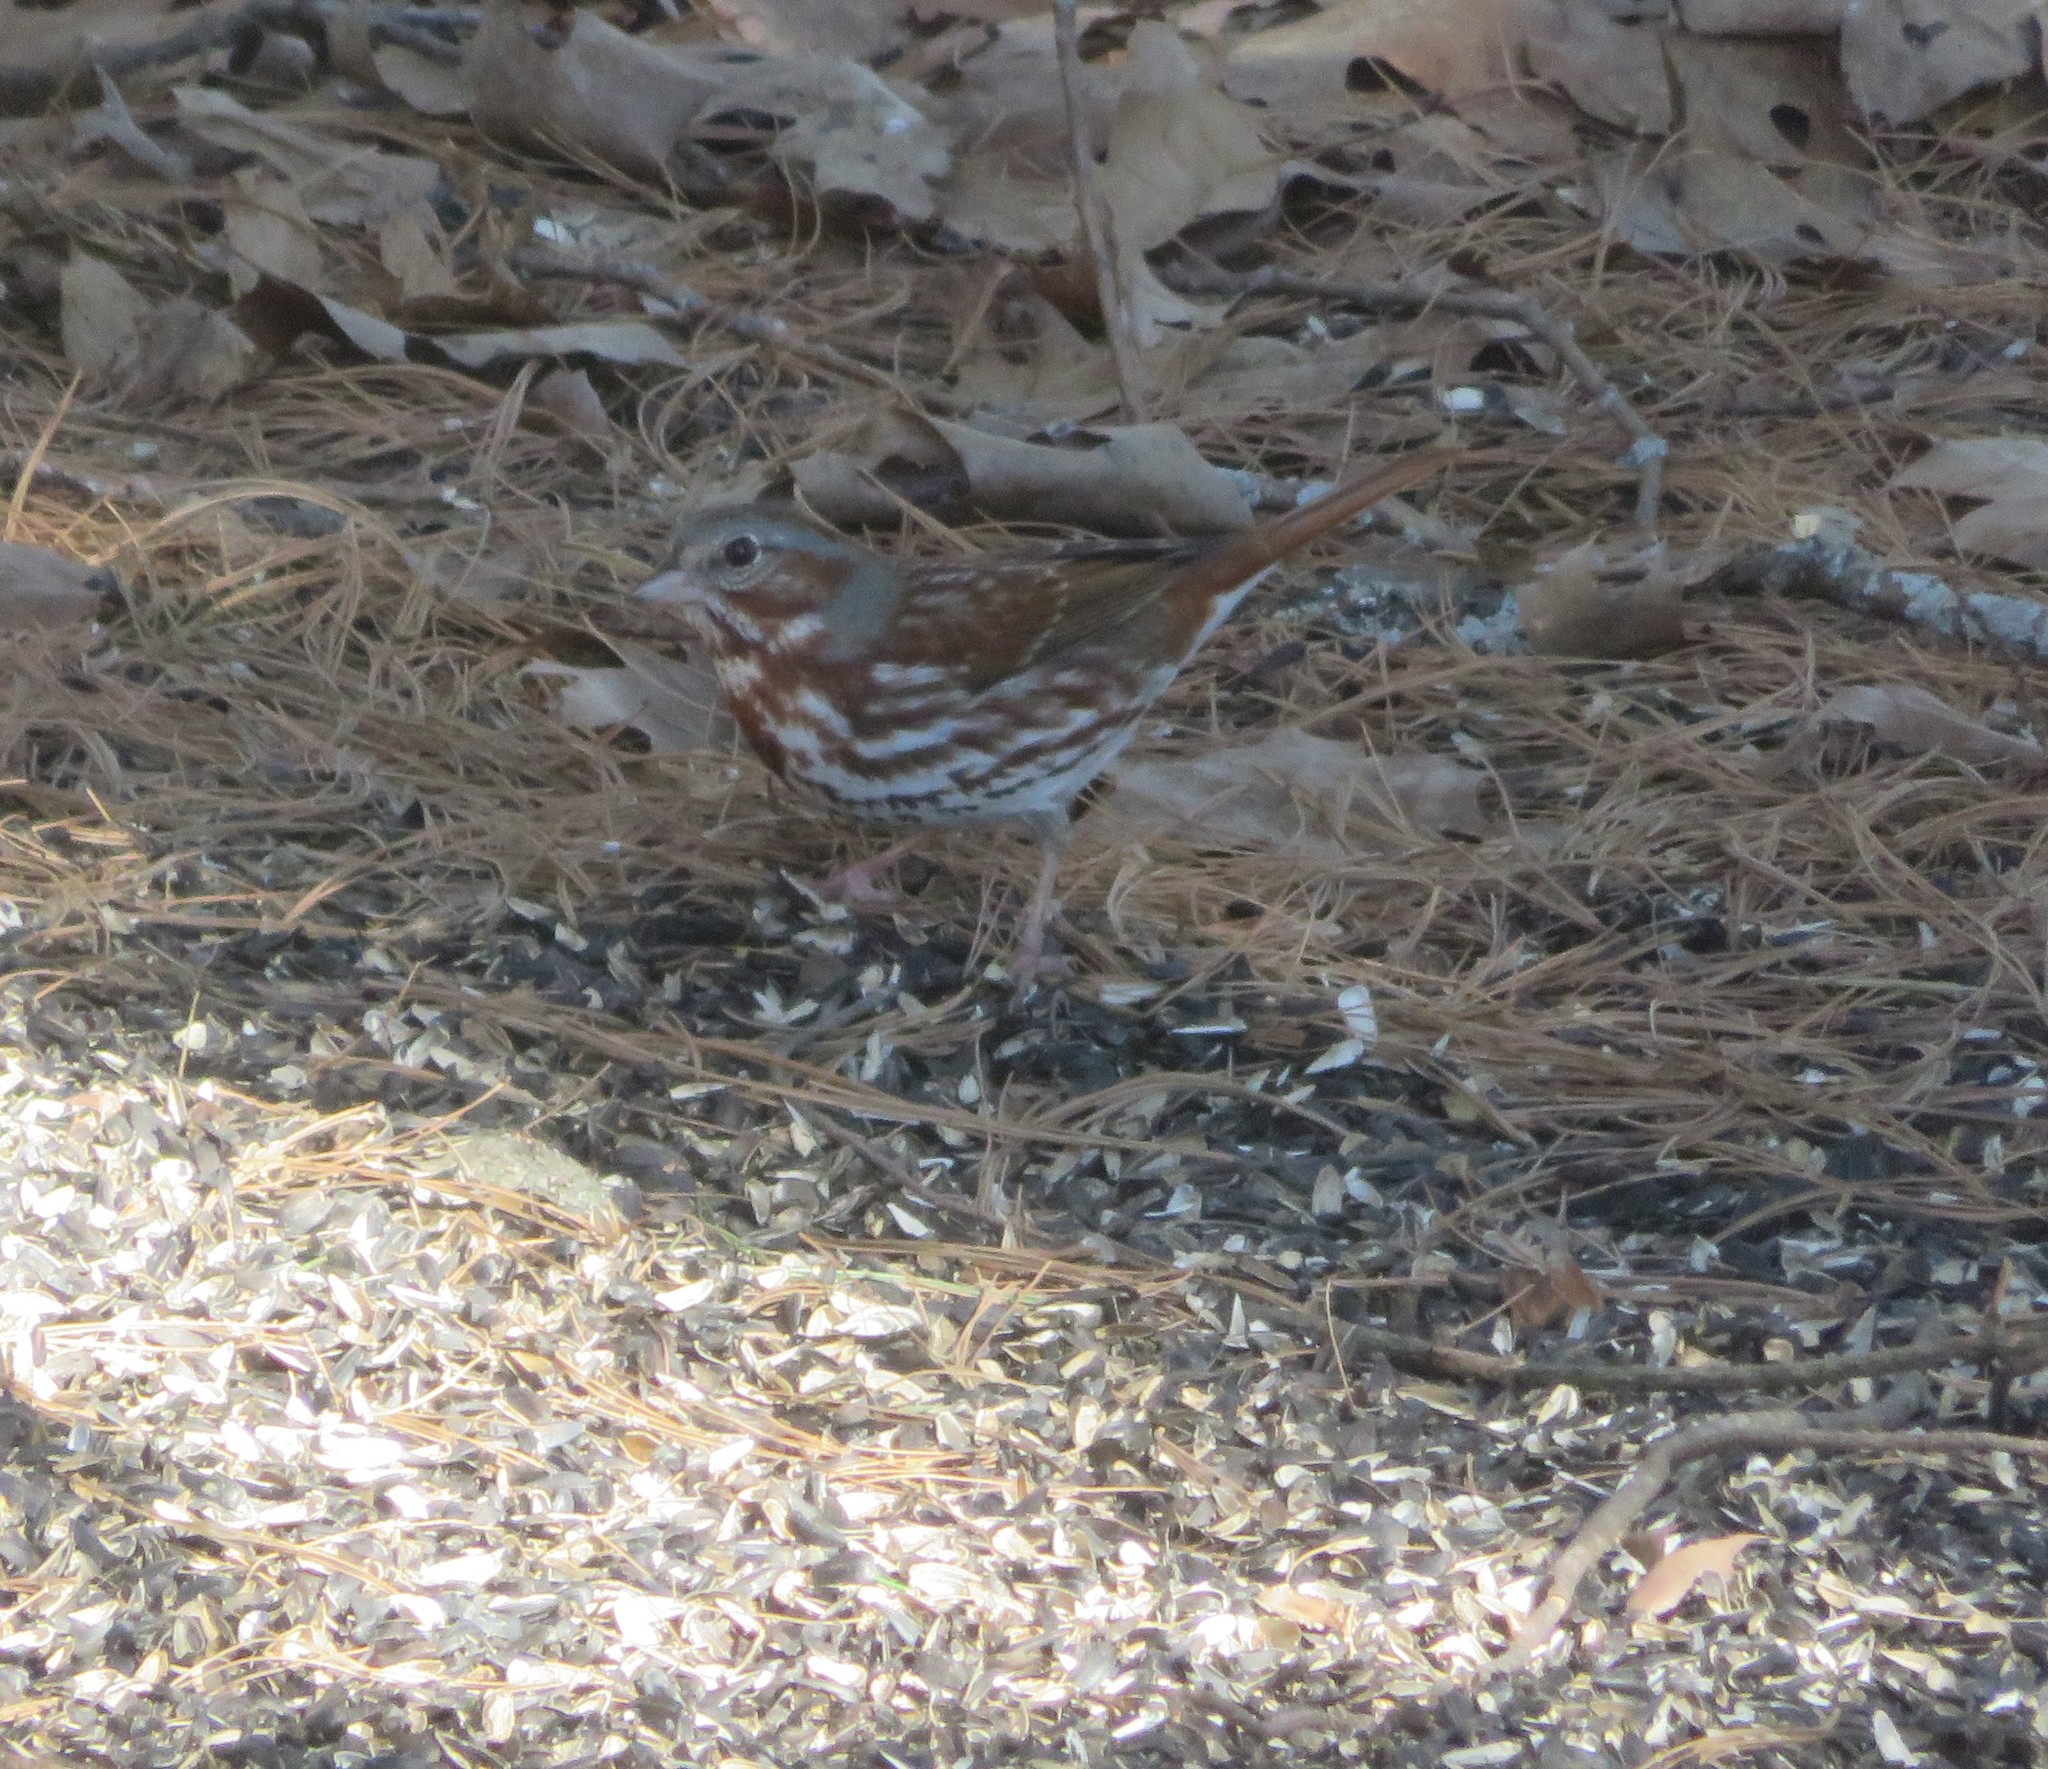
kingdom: Animalia
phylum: Chordata
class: Aves
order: Passeriformes
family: Passerellidae
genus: Passerella
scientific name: Passerella iliaca
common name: Fox sparrow
